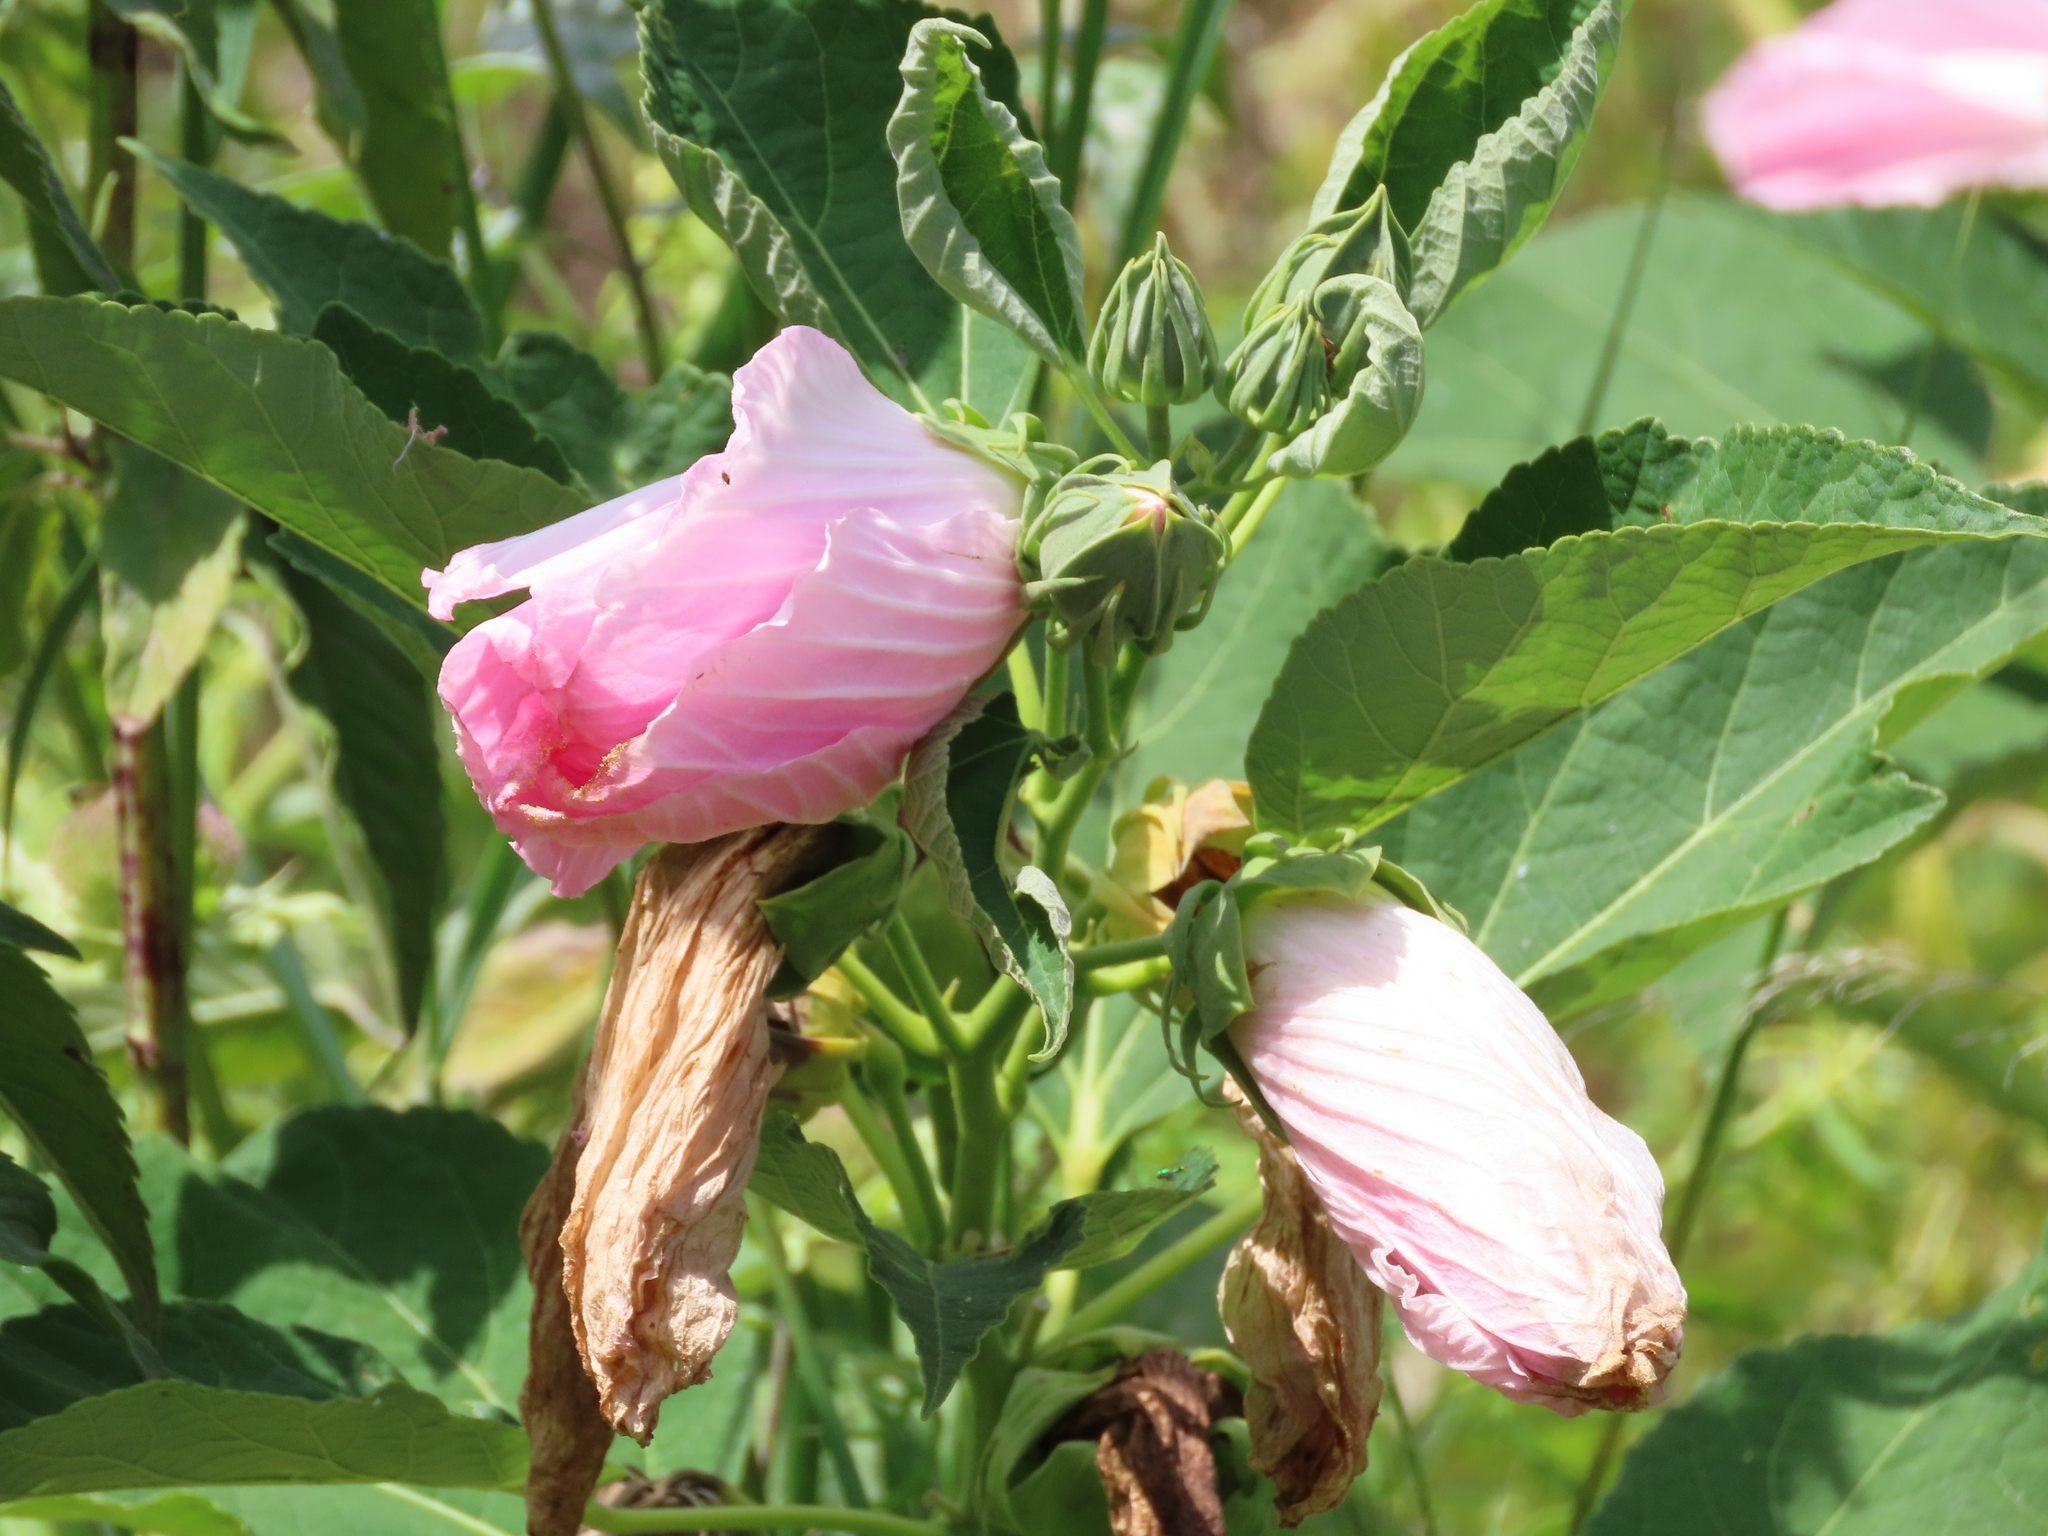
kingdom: Plantae
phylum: Tracheophyta
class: Magnoliopsida
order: Malvales
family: Malvaceae
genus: Hibiscus
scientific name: Hibiscus moscheutos
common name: Common rose-mallow
